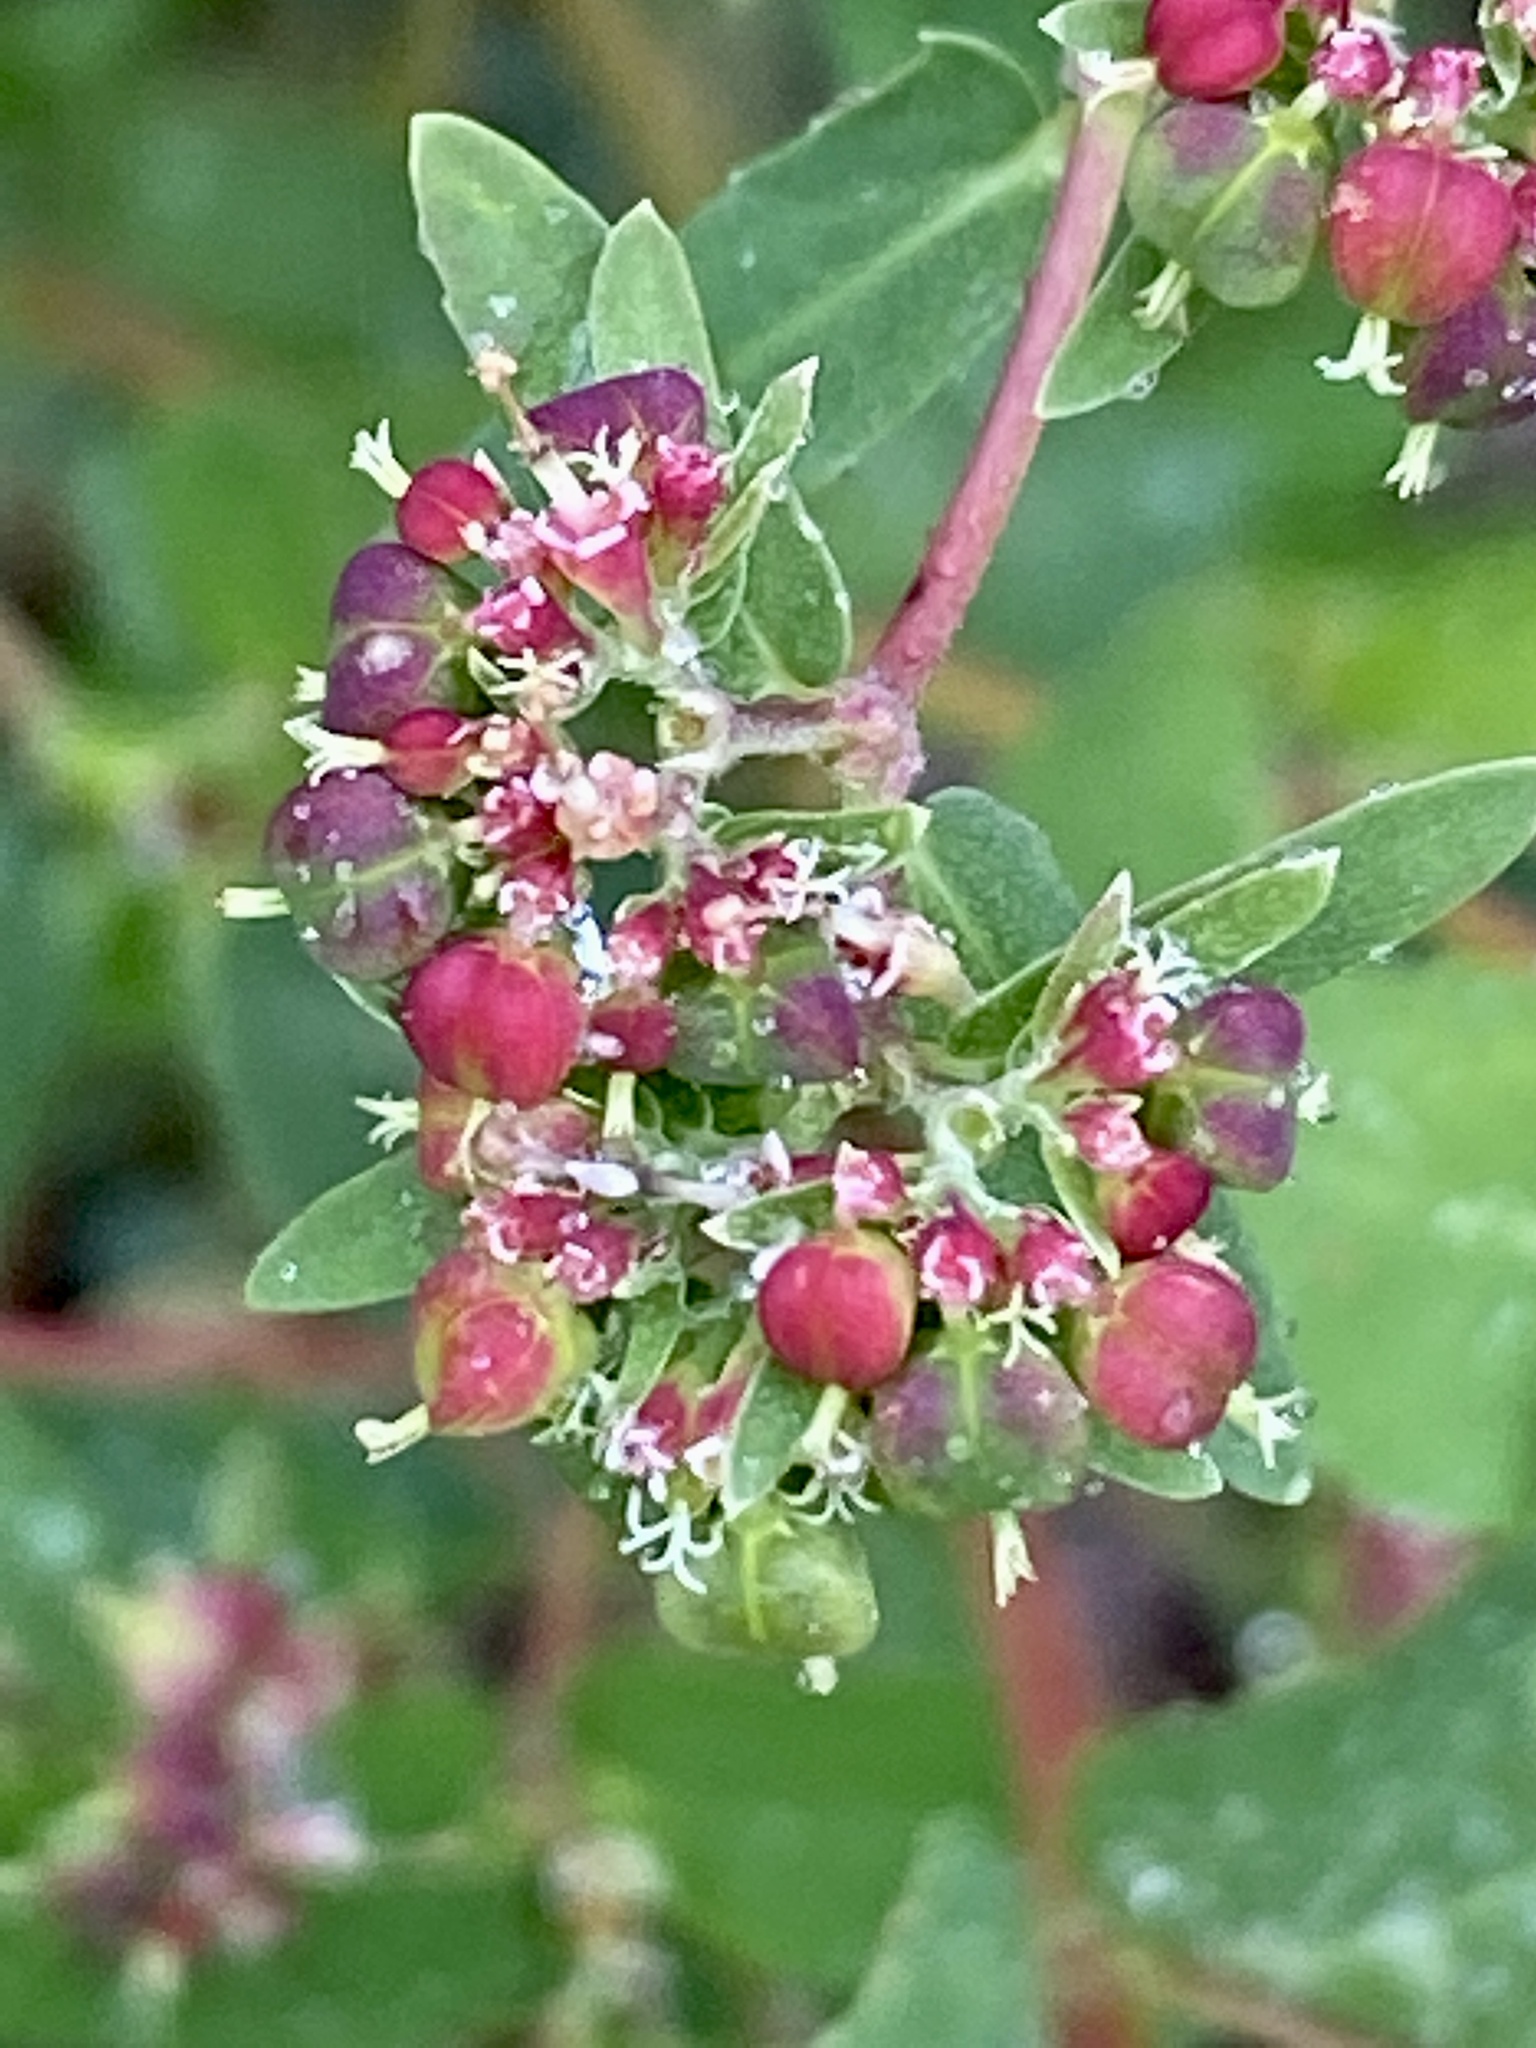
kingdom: Plantae
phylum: Tracheophyta
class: Magnoliopsida
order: Malpighiales
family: Euphorbiaceae
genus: Euphorbia
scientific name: Euphorbia nutans
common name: Eyebane
